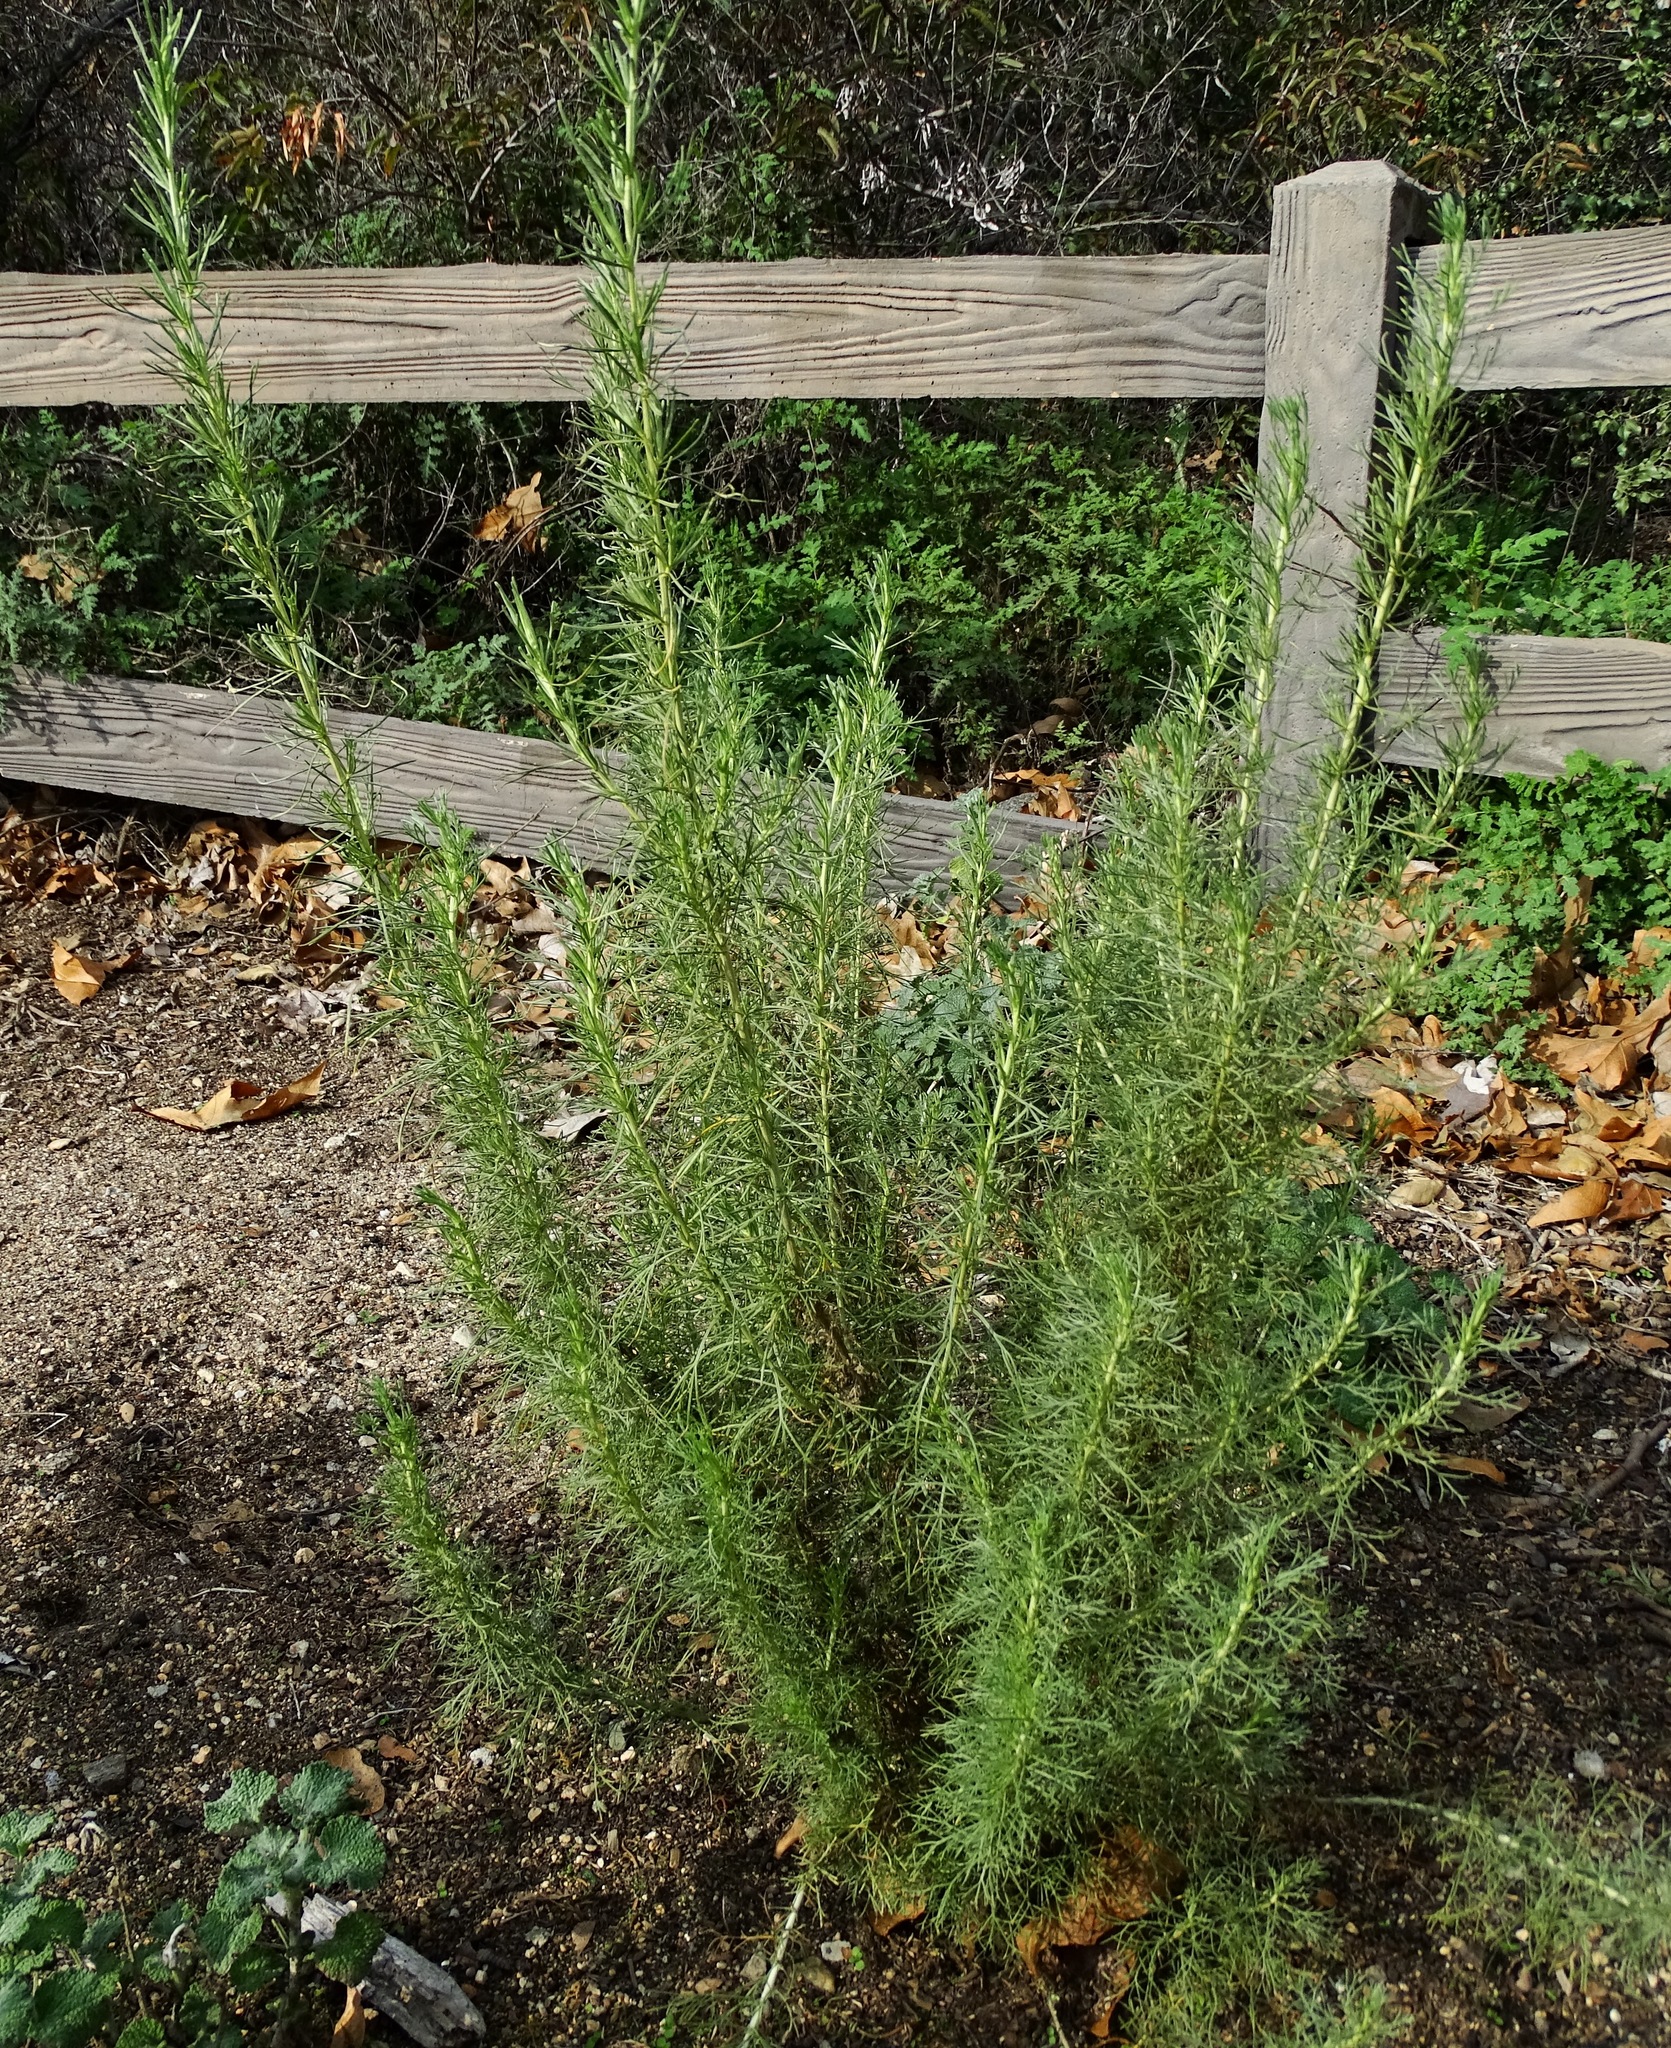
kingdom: Plantae
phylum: Tracheophyta
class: Magnoliopsida
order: Asterales
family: Asteraceae
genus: Artemisia
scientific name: Artemisia californica
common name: California sagebrush
